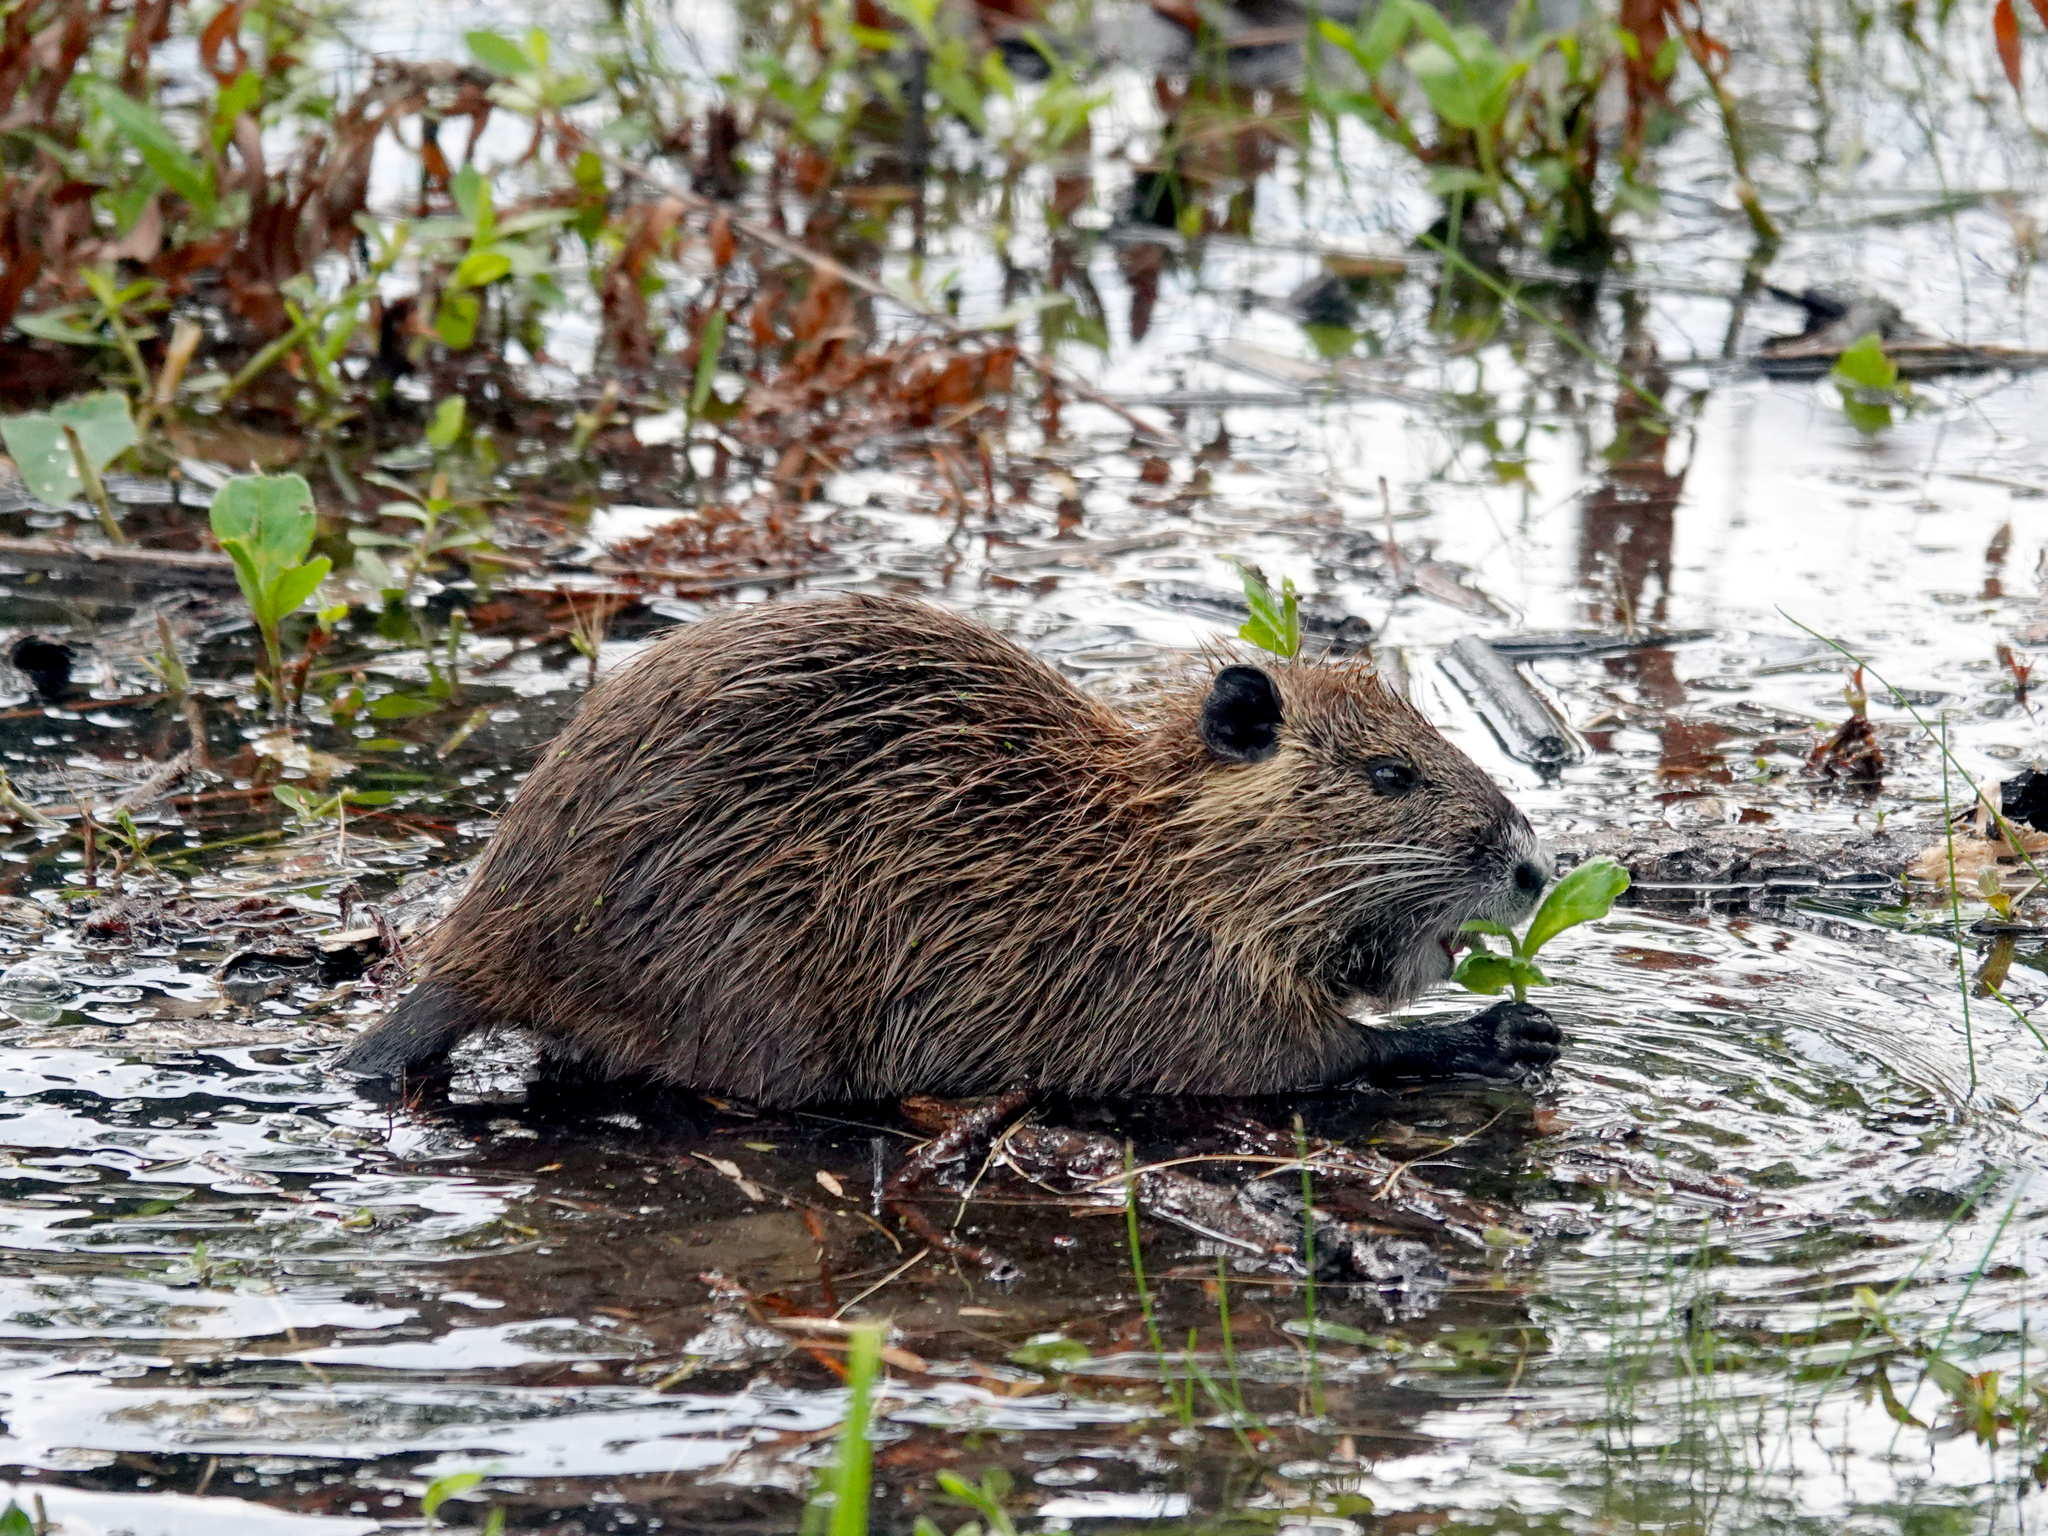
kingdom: Animalia
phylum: Chordata
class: Mammalia
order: Rodentia
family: Myocastoridae
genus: Myocastor
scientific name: Myocastor coypus
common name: Coypu
